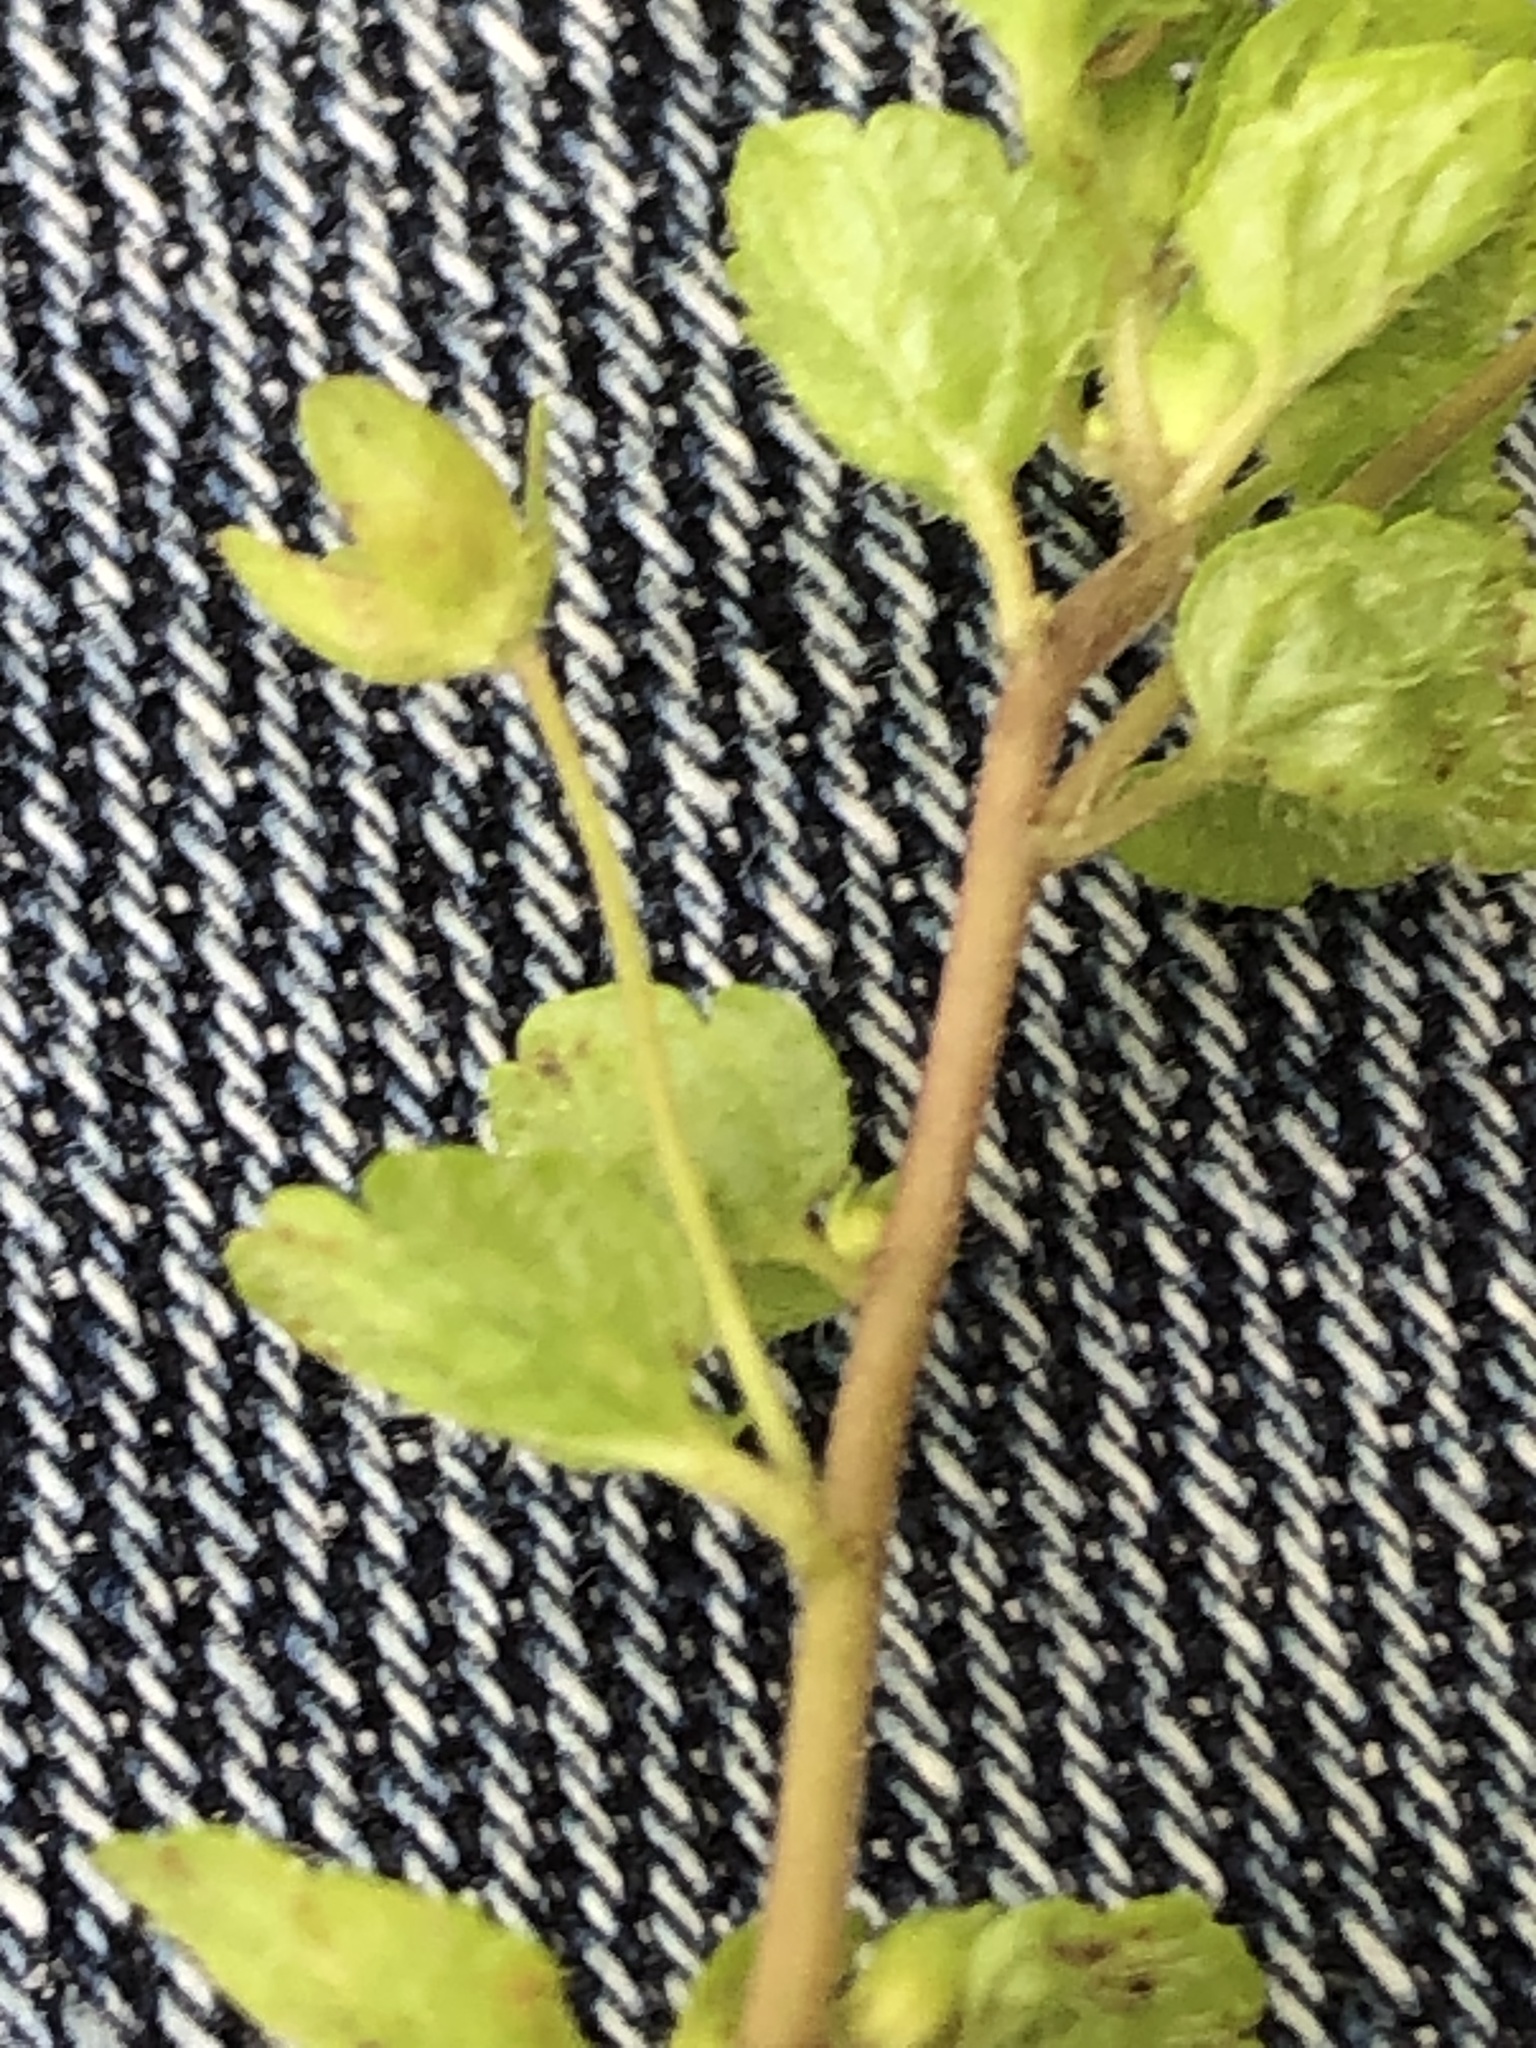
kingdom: Plantae
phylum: Tracheophyta
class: Magnoliopsida
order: Lamiales
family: Plantaginaceae
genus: Veronica
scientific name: Veronica filiformis
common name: Slender speedwell
